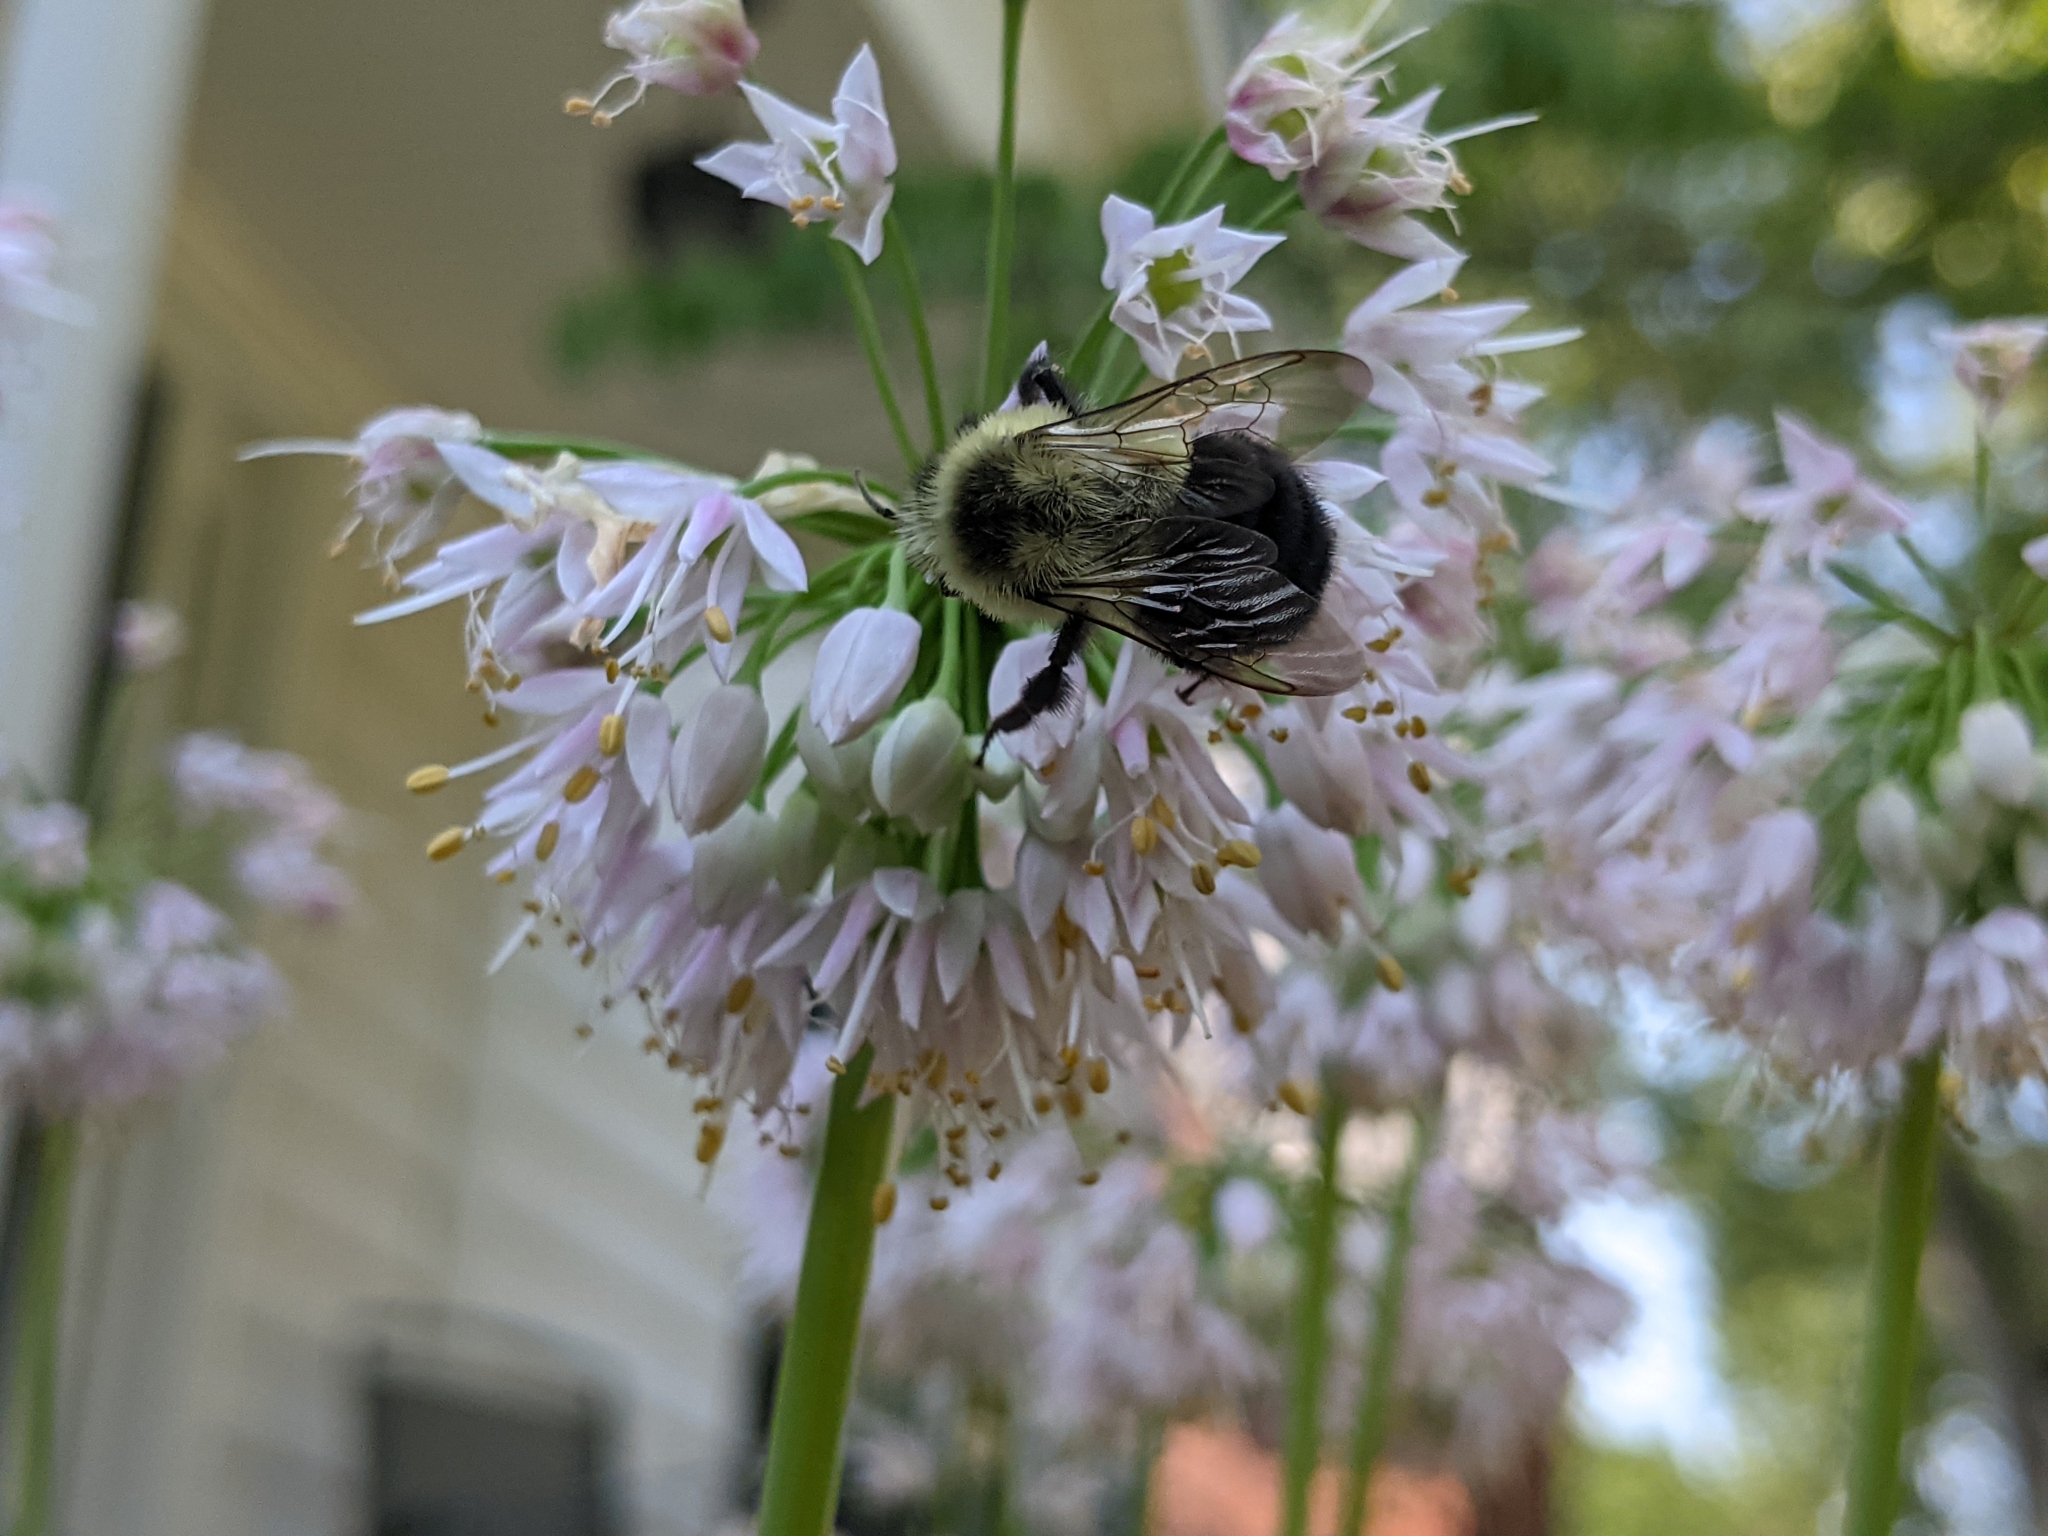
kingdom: Animalia
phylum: Arthropoda
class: Insecta
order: Hymenoptera
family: Apidae
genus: Bombus
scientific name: Bombus impatiens
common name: Common eastern bumble bee
